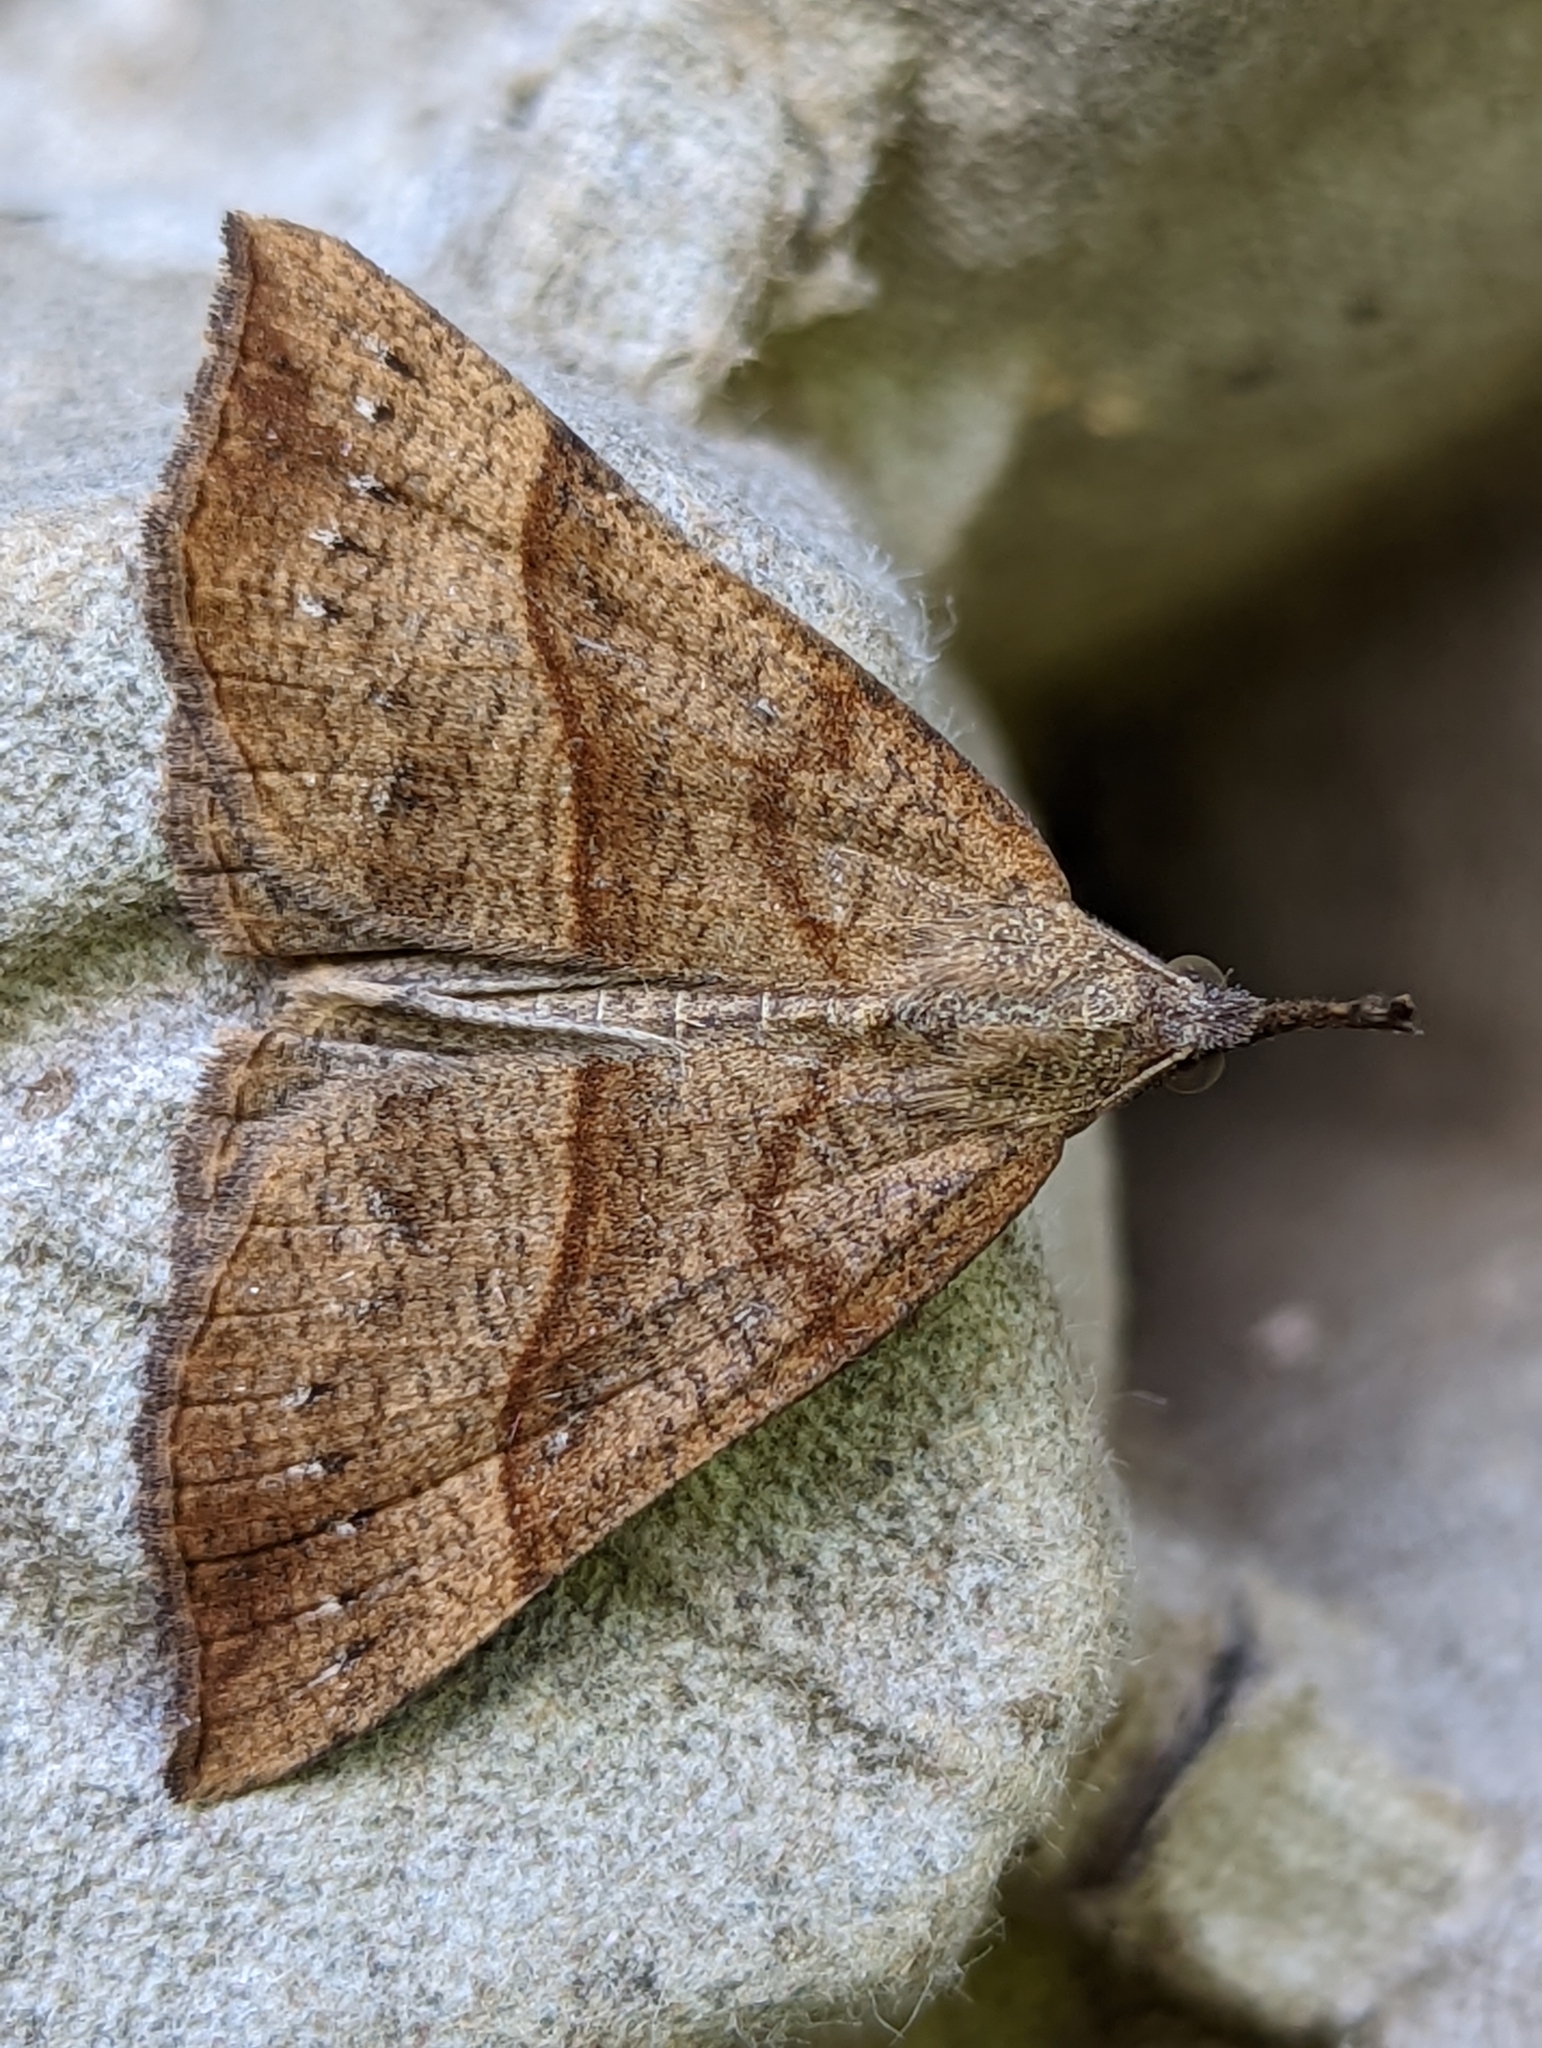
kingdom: Animalia
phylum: Arthropoda
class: Insecta
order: Lepidoptera
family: Erebidae
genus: Hypena
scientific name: Hypena proboscidalis
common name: Snout
